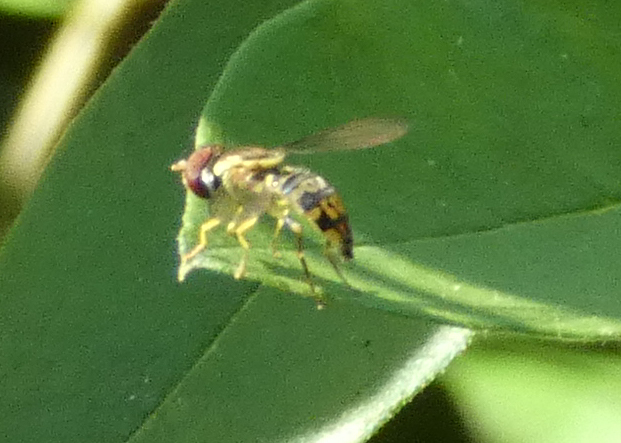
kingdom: Animalia
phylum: Arthropoda
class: Insecta
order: Diptera
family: Syrphidae
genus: Toxomerus
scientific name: Toxomerus geminatus
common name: Eastern calligrapher
